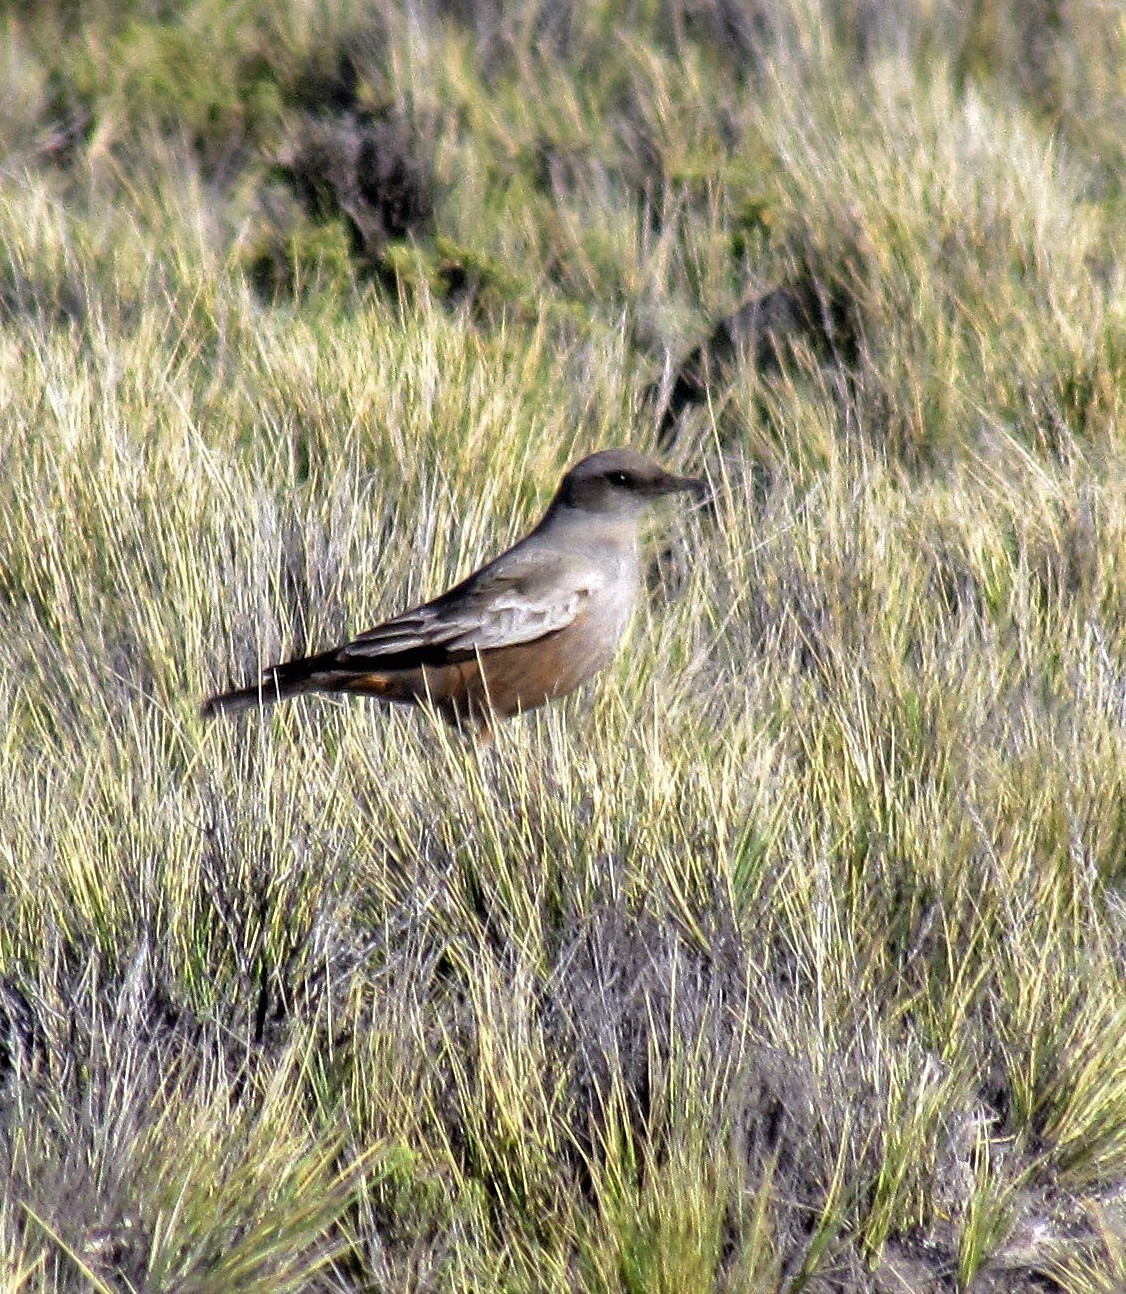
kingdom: Animalia
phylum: Chordata
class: Aves
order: Passeriformes
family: Tyrannidae
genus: Neoxolmis
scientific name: Neoxolmis rufiventris
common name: Chocolate-vented tyrant
